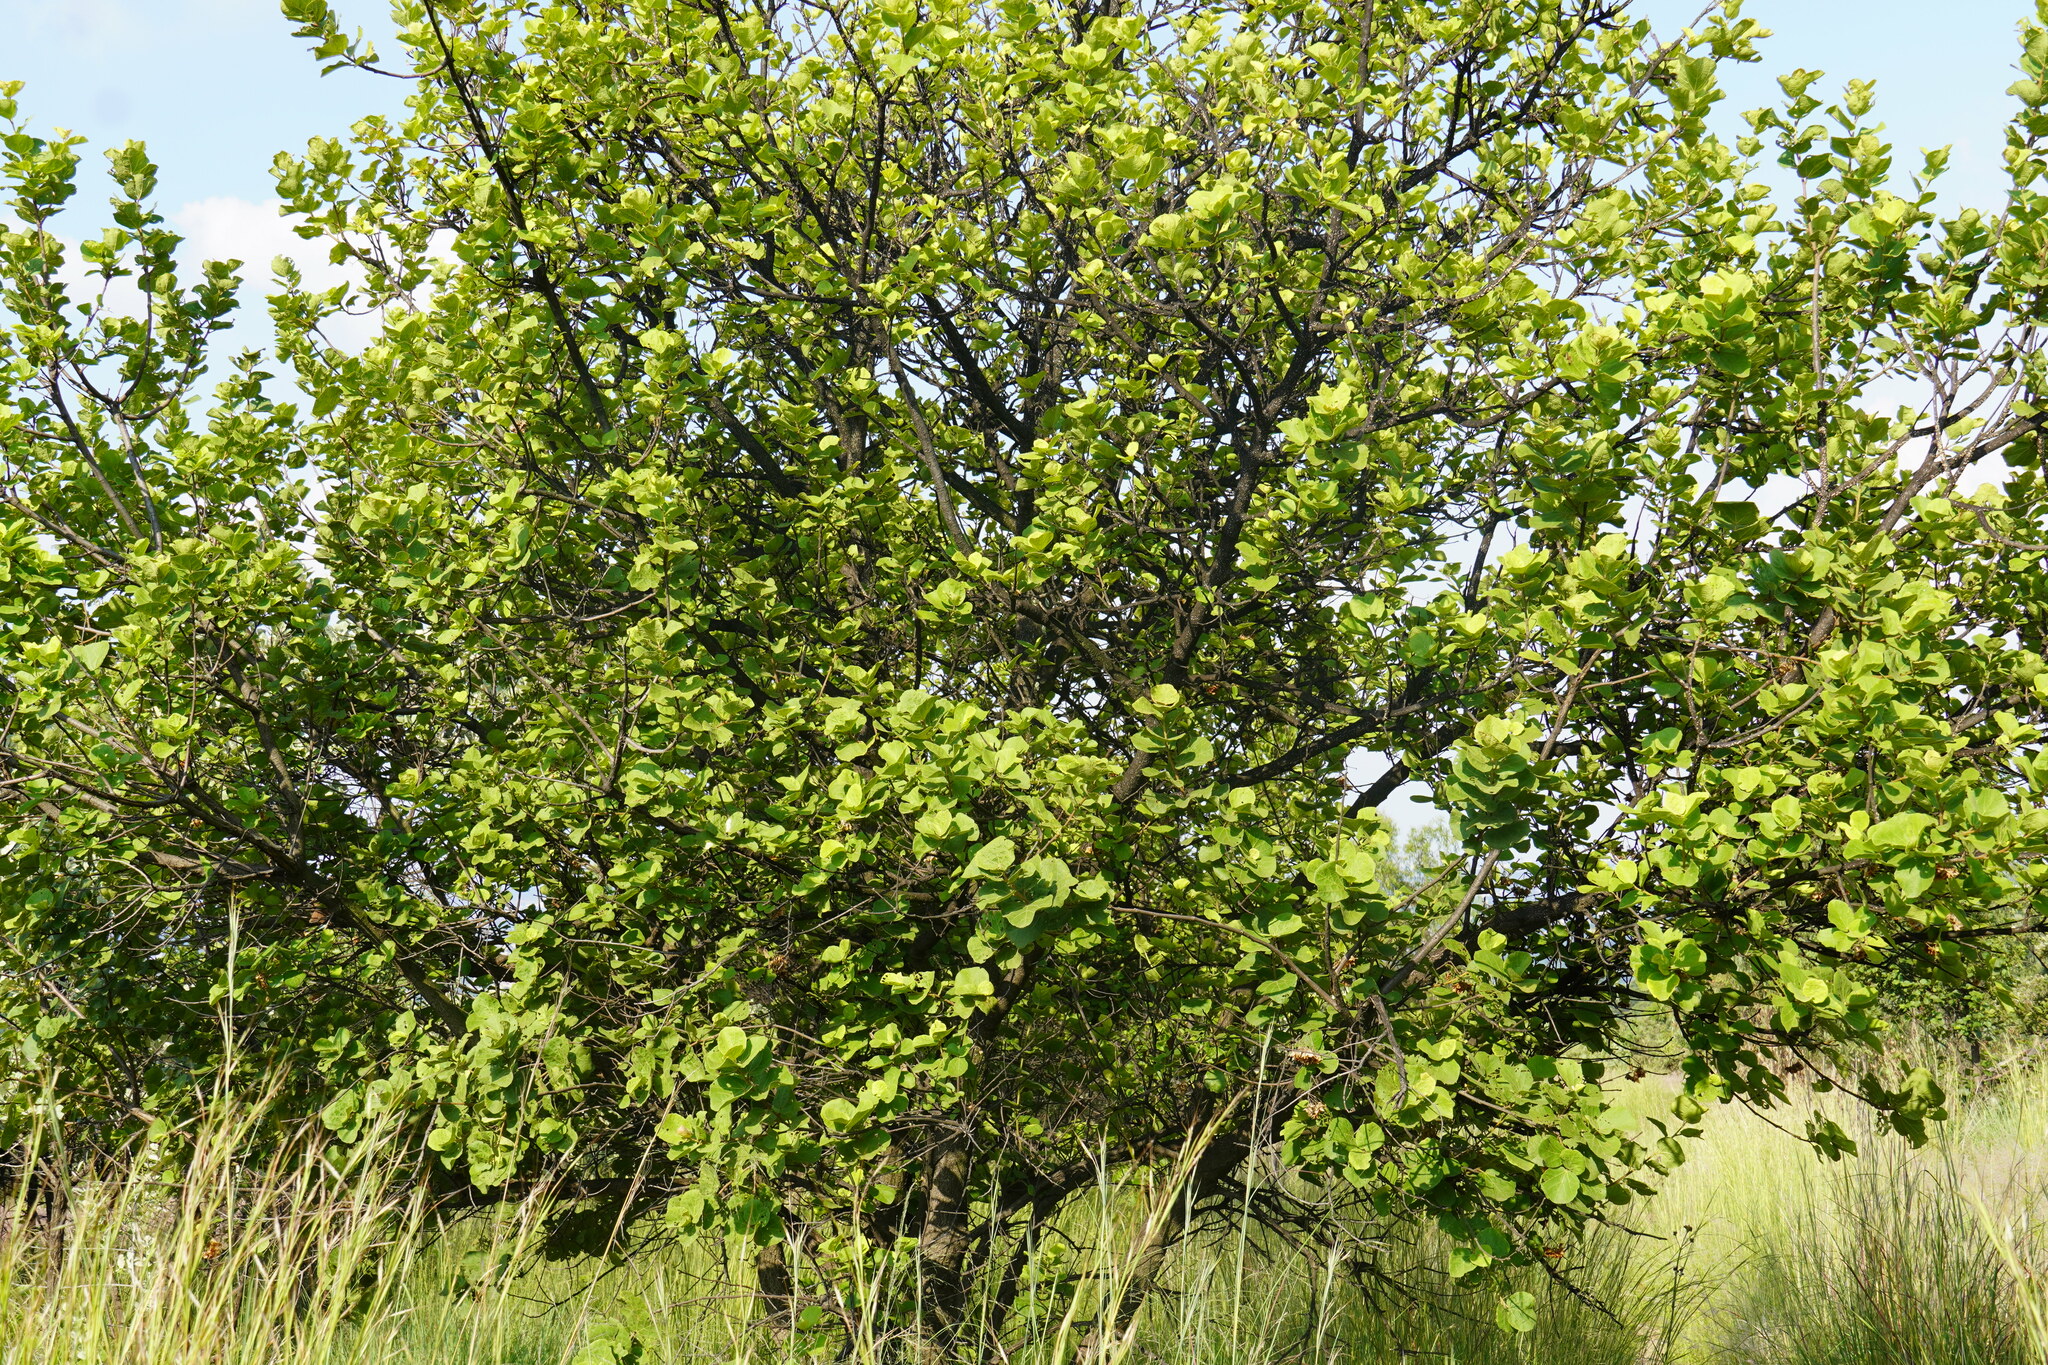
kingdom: Plantae
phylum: Tracheophyta
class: Magnoliopsida
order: Malvales
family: Malvaceae
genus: Dombeya
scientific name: Dombeya rotundifolia
